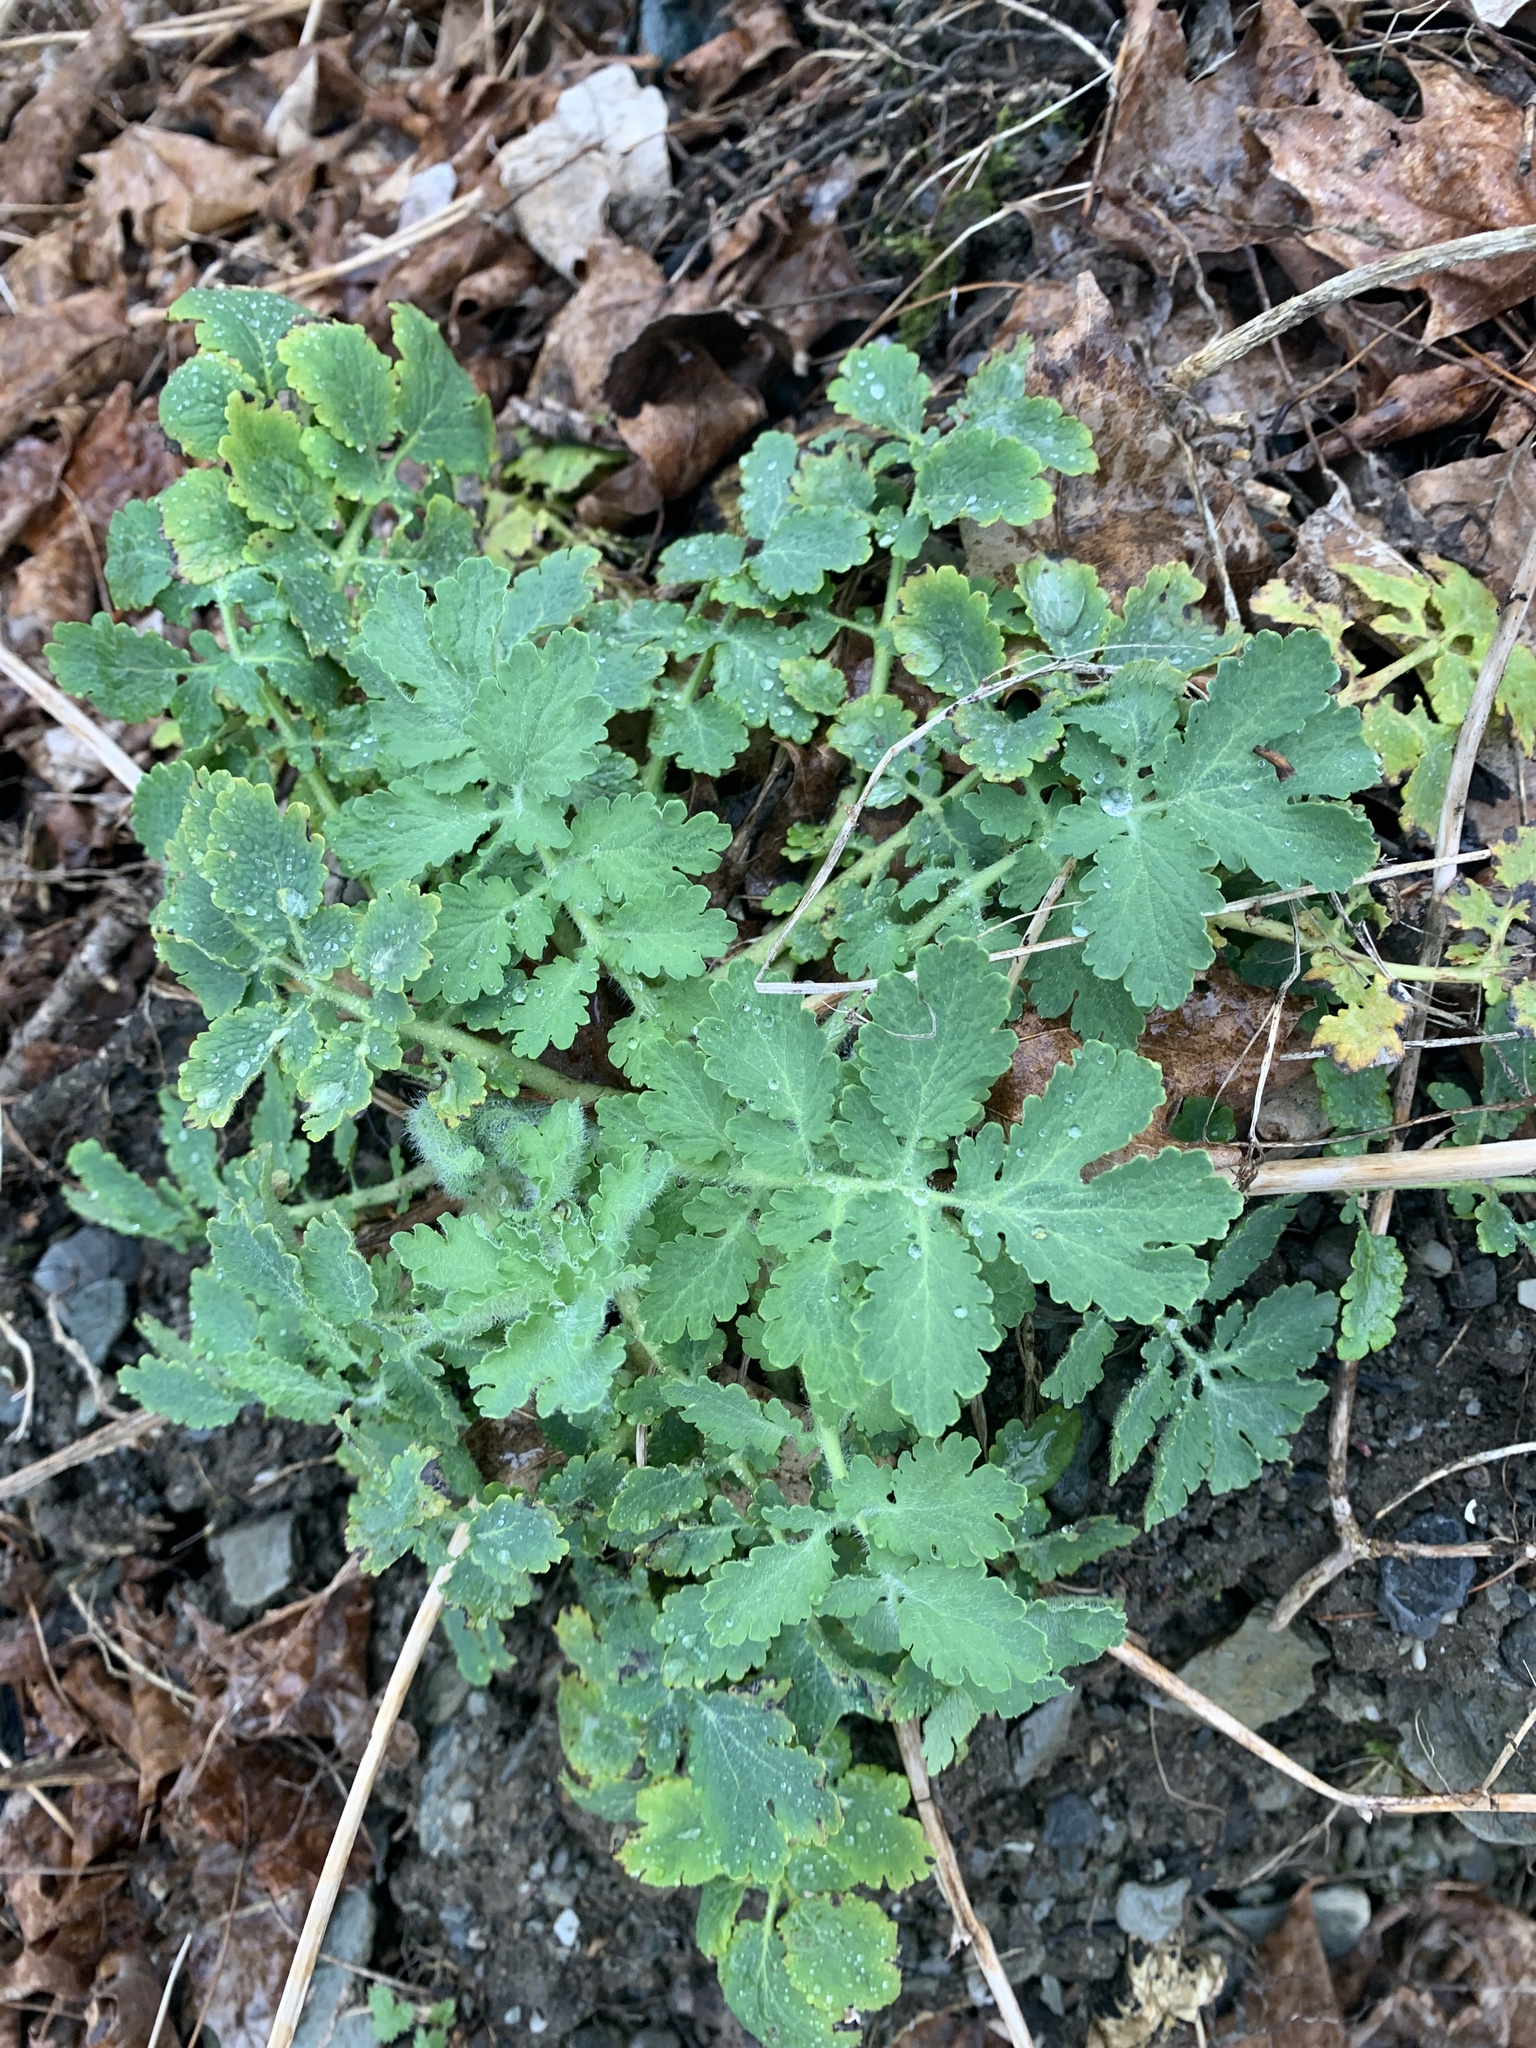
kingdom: Plantae
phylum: Tracheophyta
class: Magnoliopsida
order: Ranunculales
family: Papaveraceae
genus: Chelidonium
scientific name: Chelidonium majus
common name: Greater celandine
